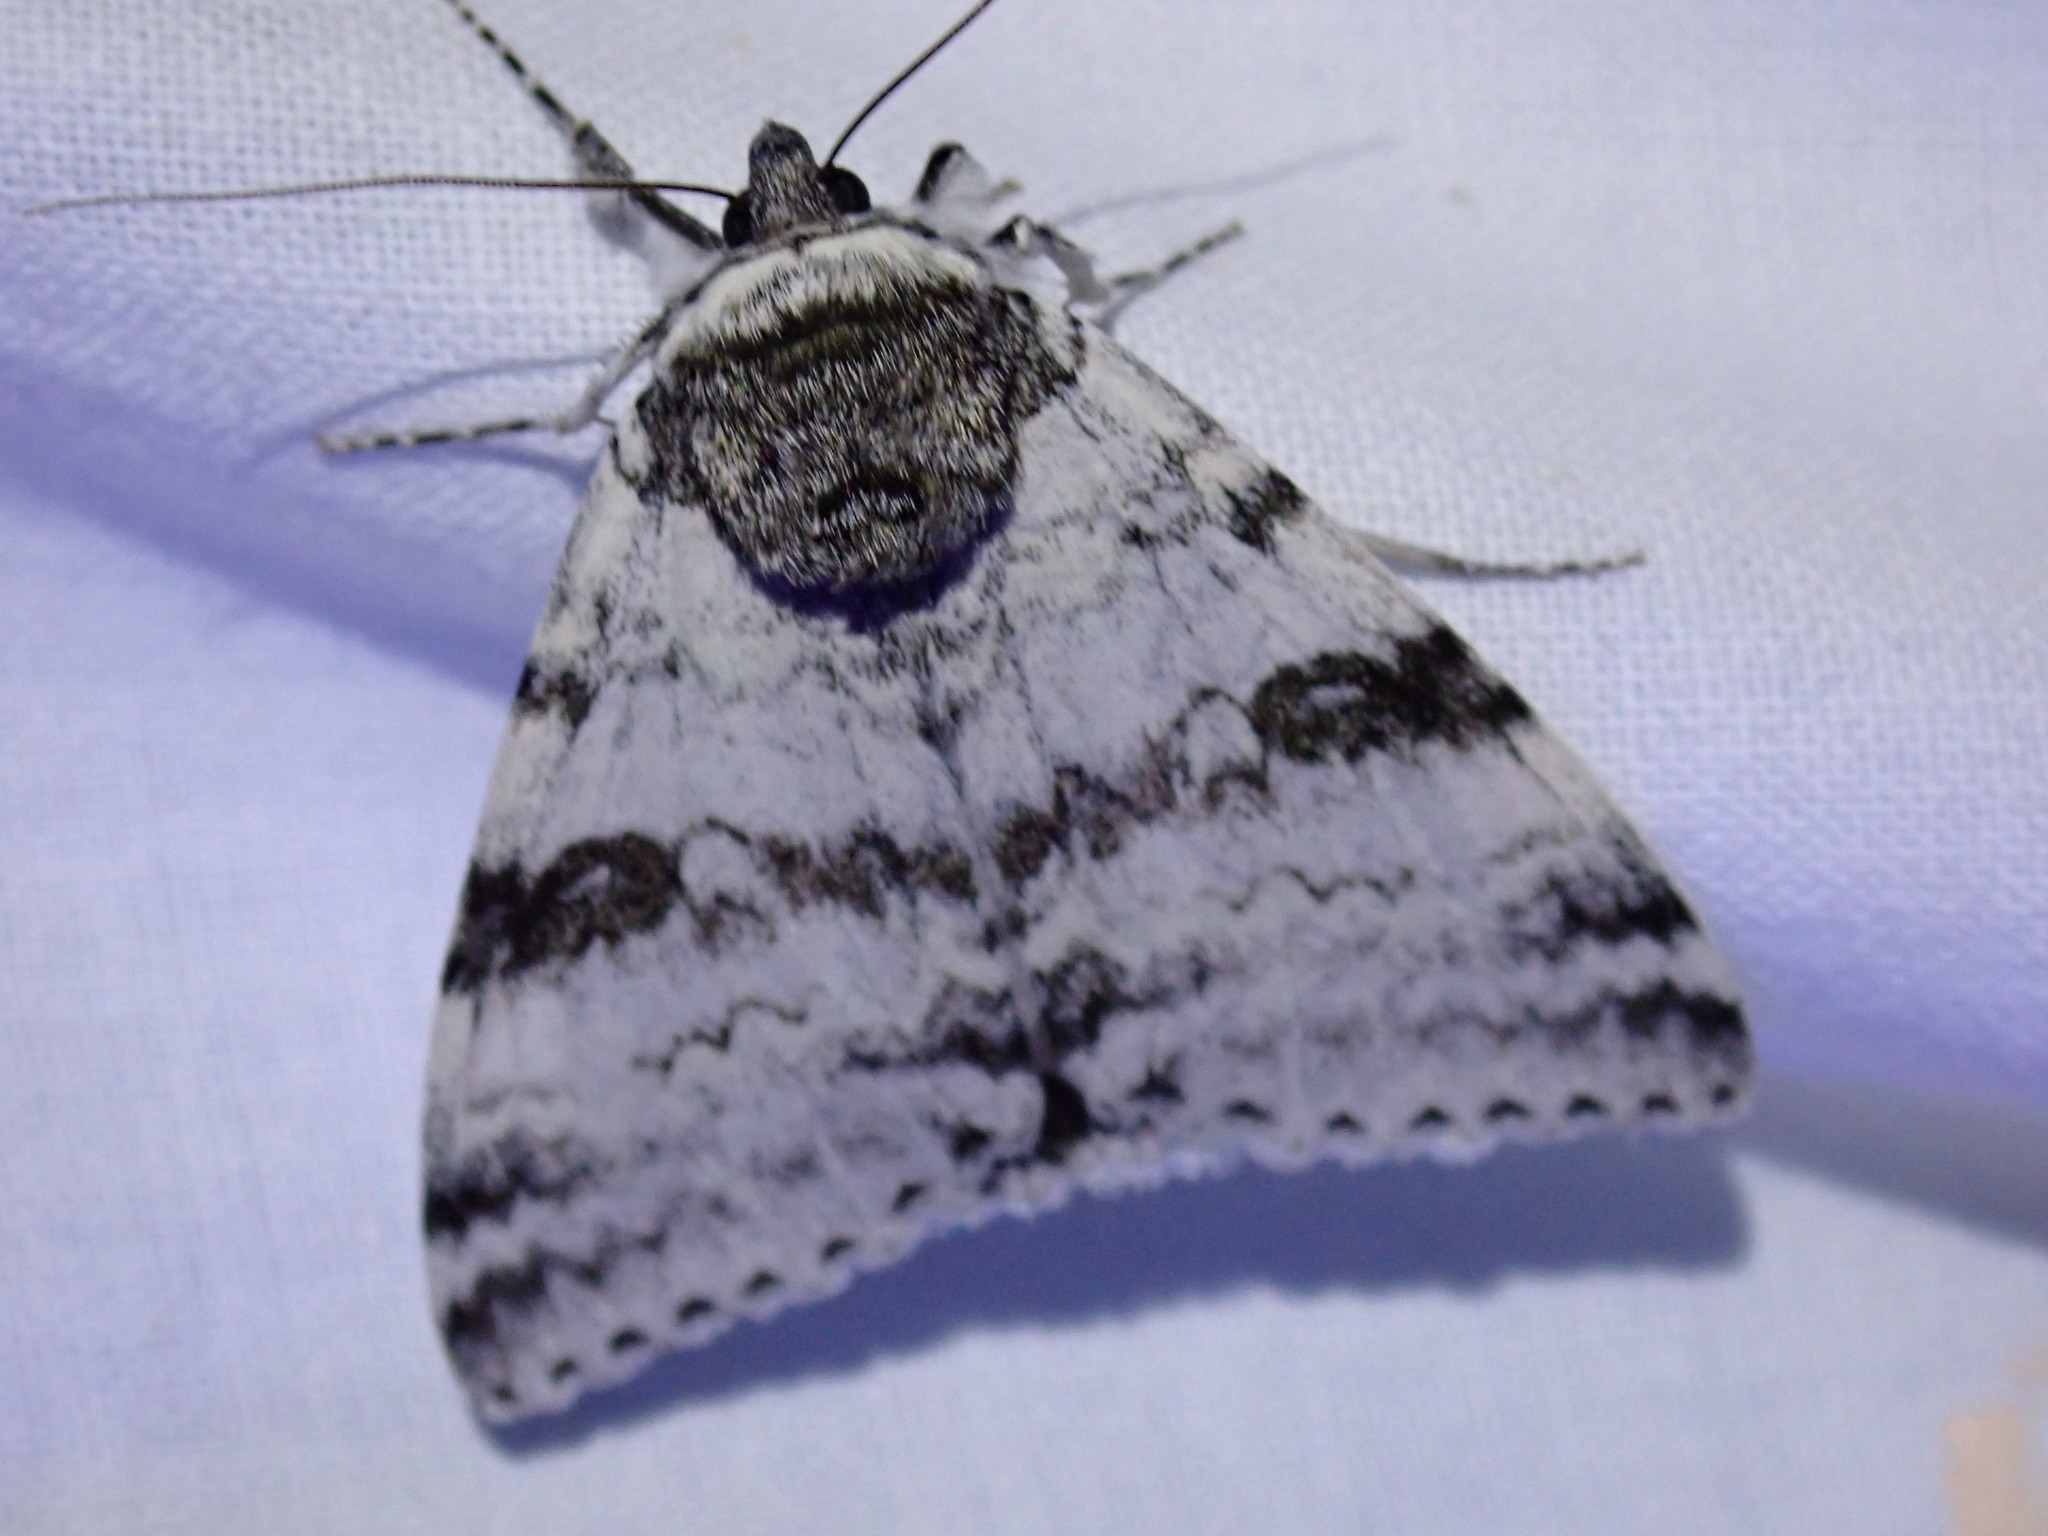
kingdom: Animalia
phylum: Arthropoda
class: Insecta
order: Lepidoptera
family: Erebidae
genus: Catocala
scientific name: Catocala relicta
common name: White underwing
